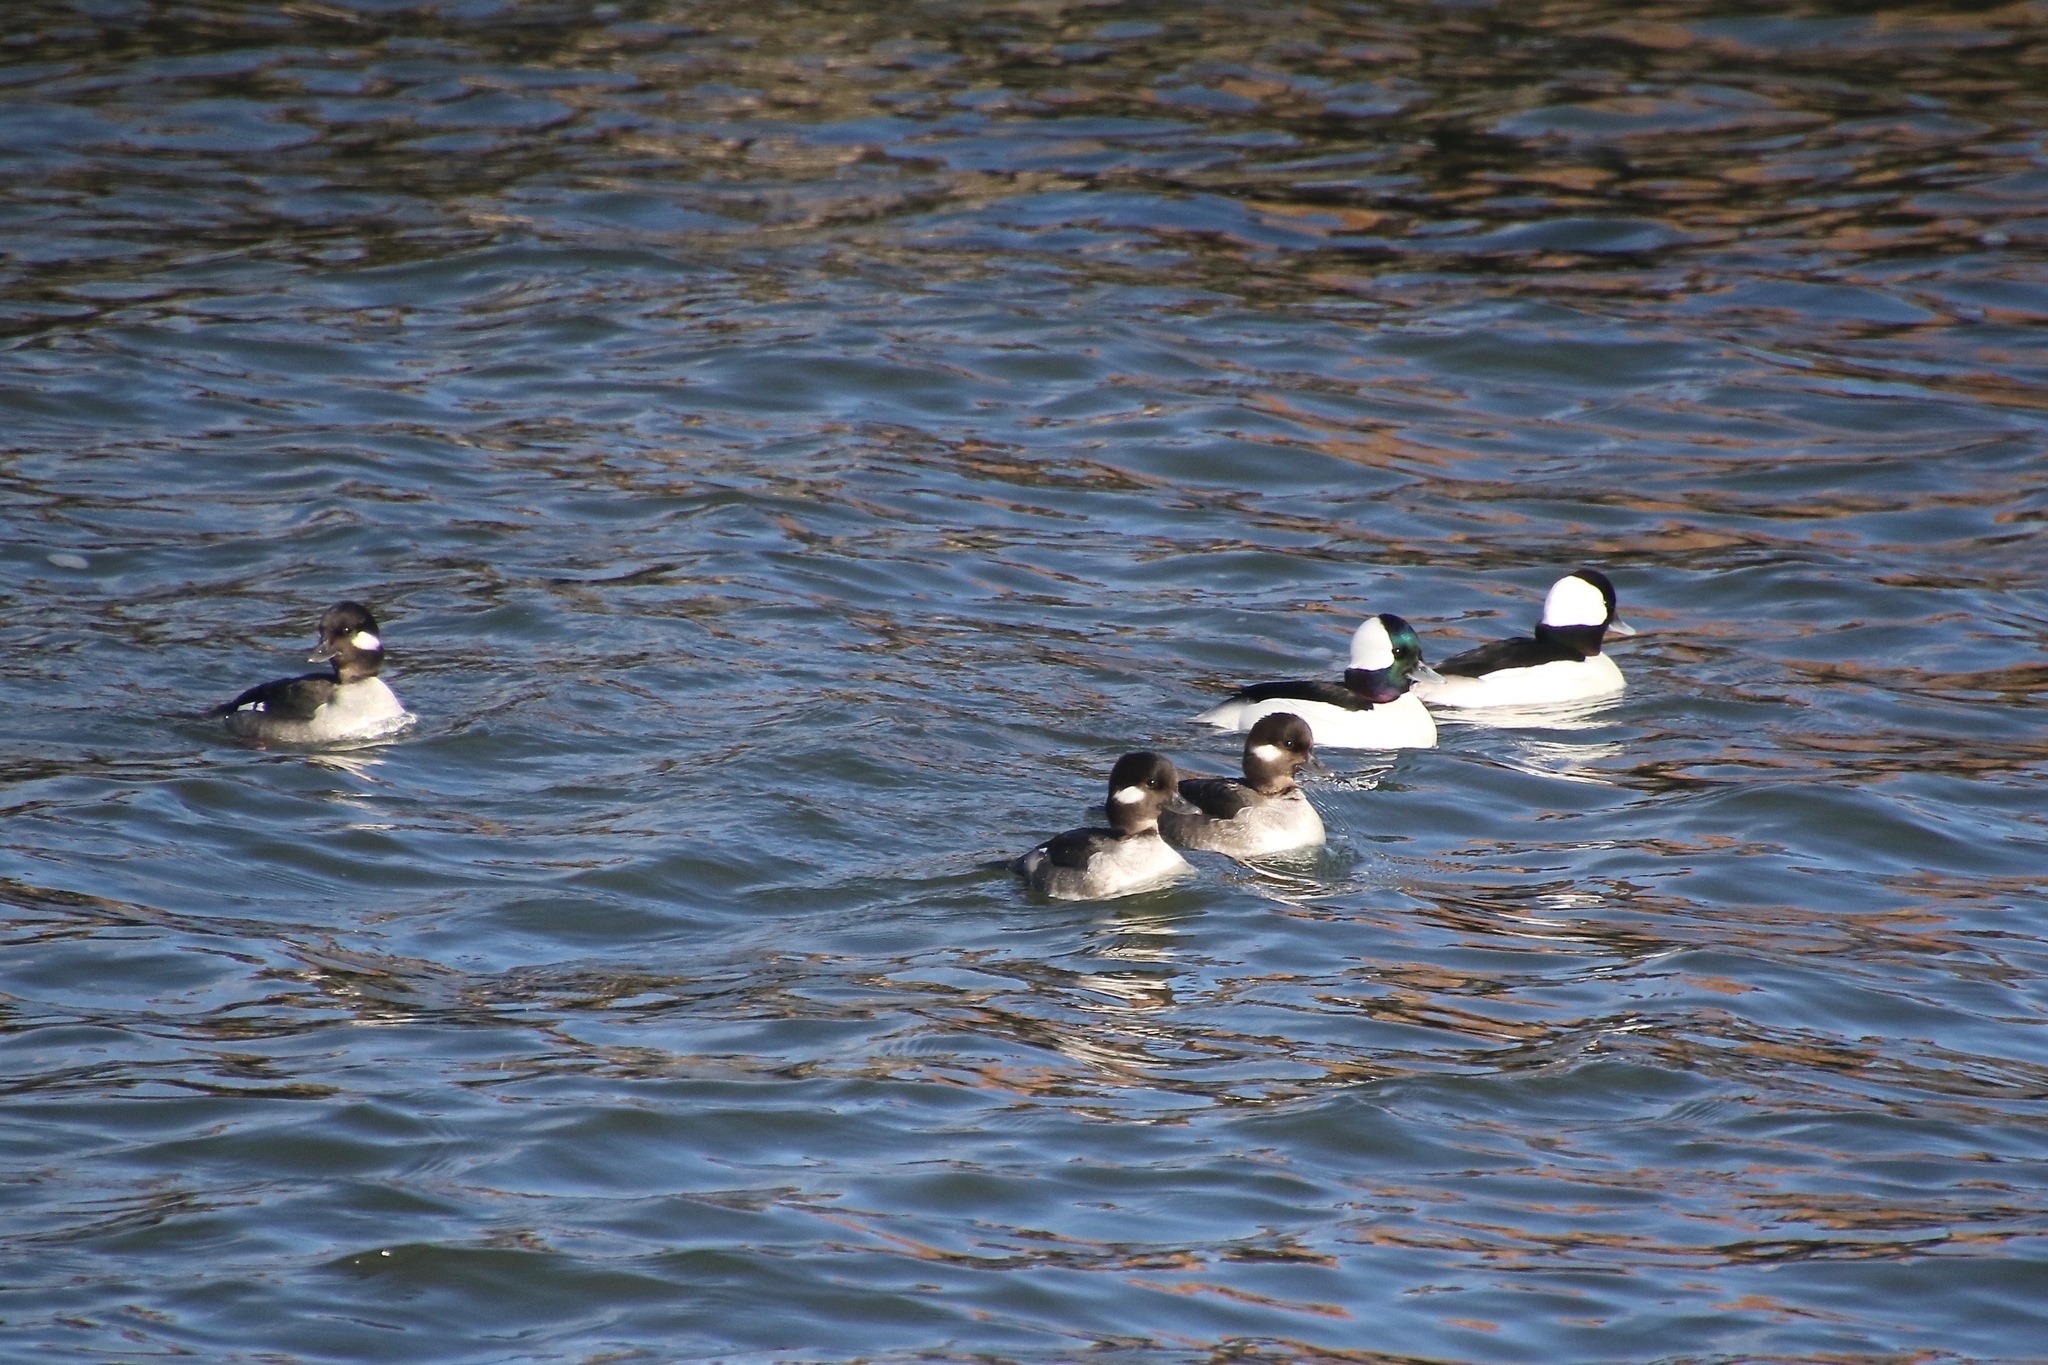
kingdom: Animalia
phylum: Chordata
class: Aves
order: Anseriformes
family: Anatidae
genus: Bucephala
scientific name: Bucephala albeola
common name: Bufflehead
